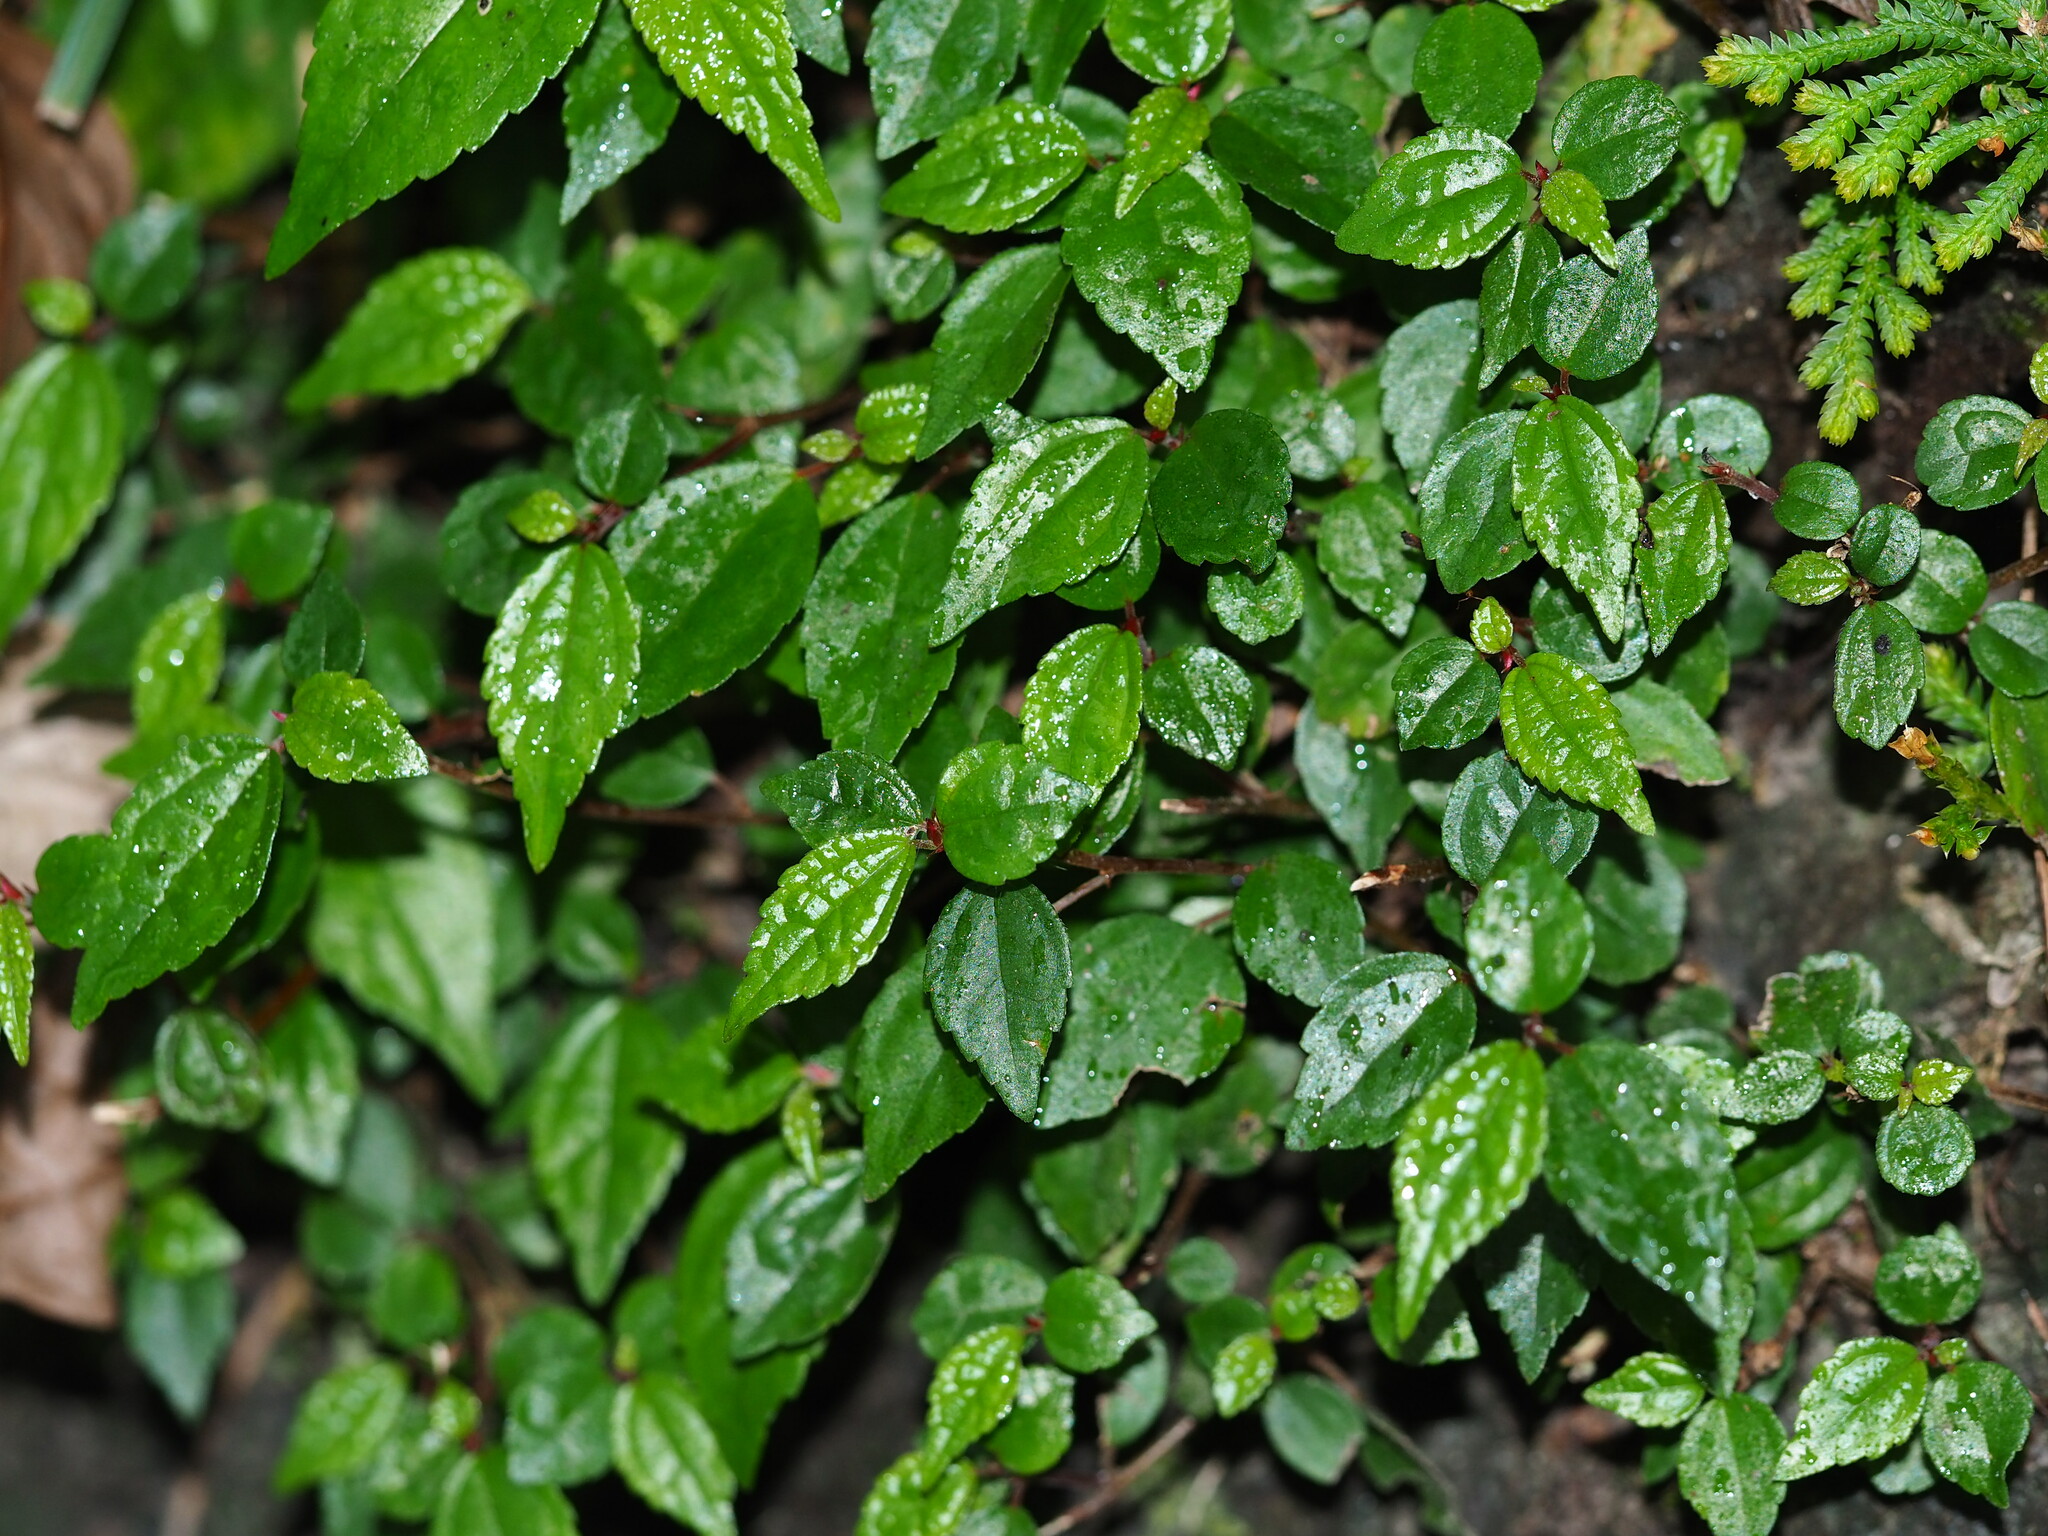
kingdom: Plantae
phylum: Tracheophyta
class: Magnoliopsida
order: Rosales
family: Urticaceae
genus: Oreocnide
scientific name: Oreocnide pedunculata
